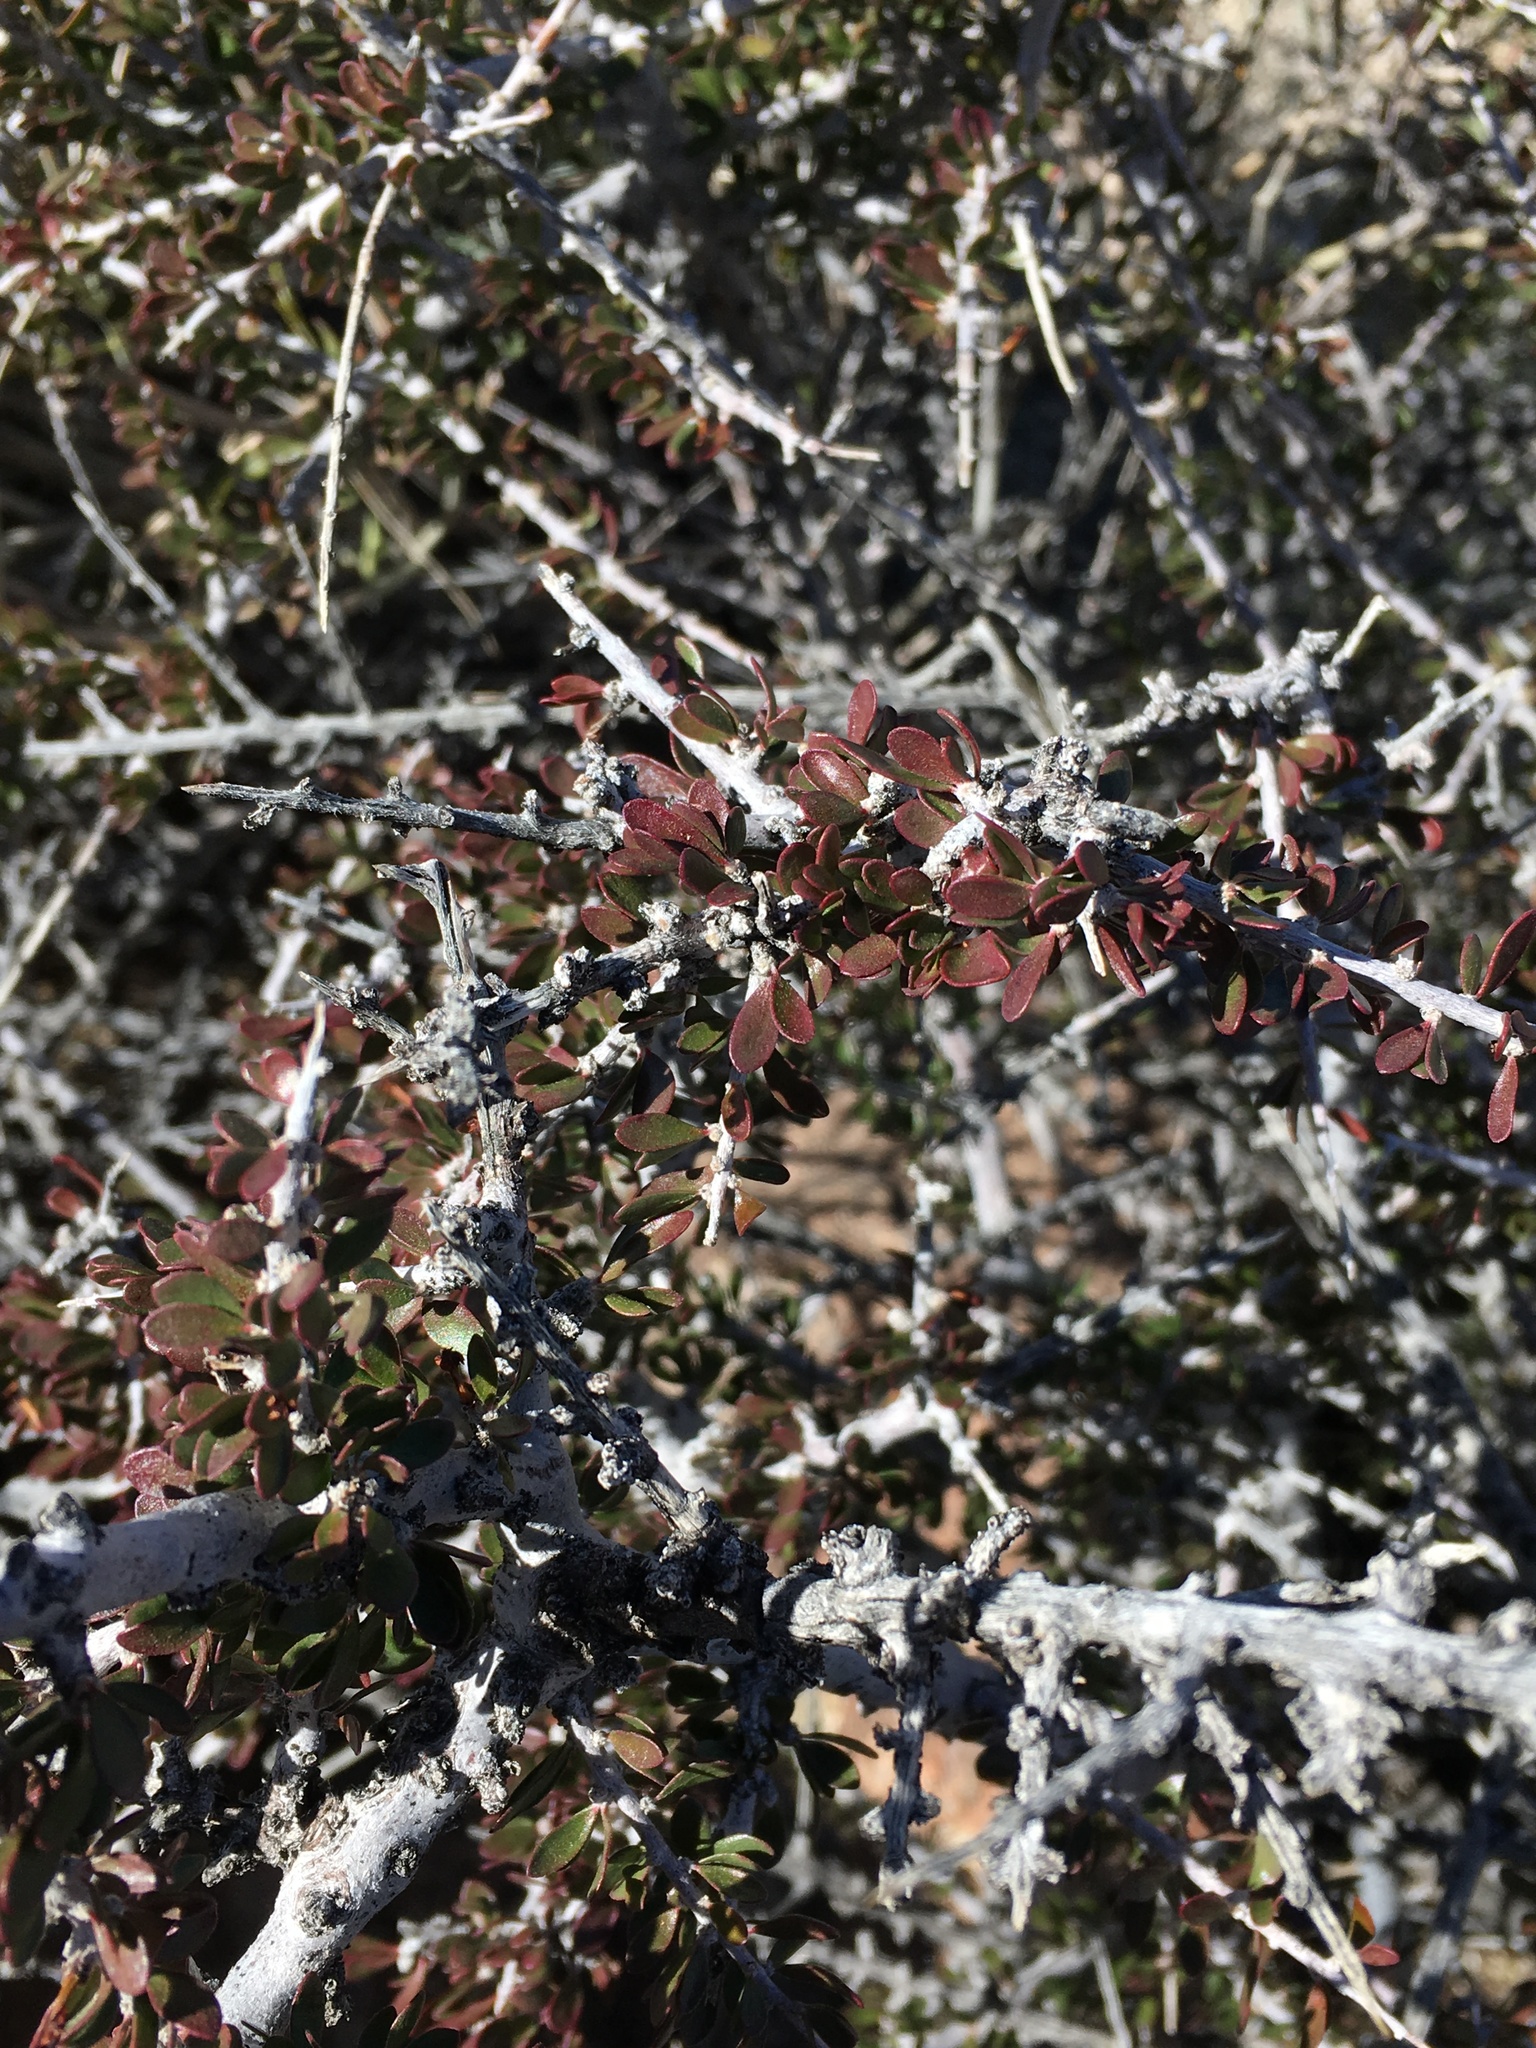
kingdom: Plantae
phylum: Tracheophyta
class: Magnoliopsida
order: Malpighiales
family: Picrodendraceae
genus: Tetracoccus
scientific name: Tetracoccus hallii
